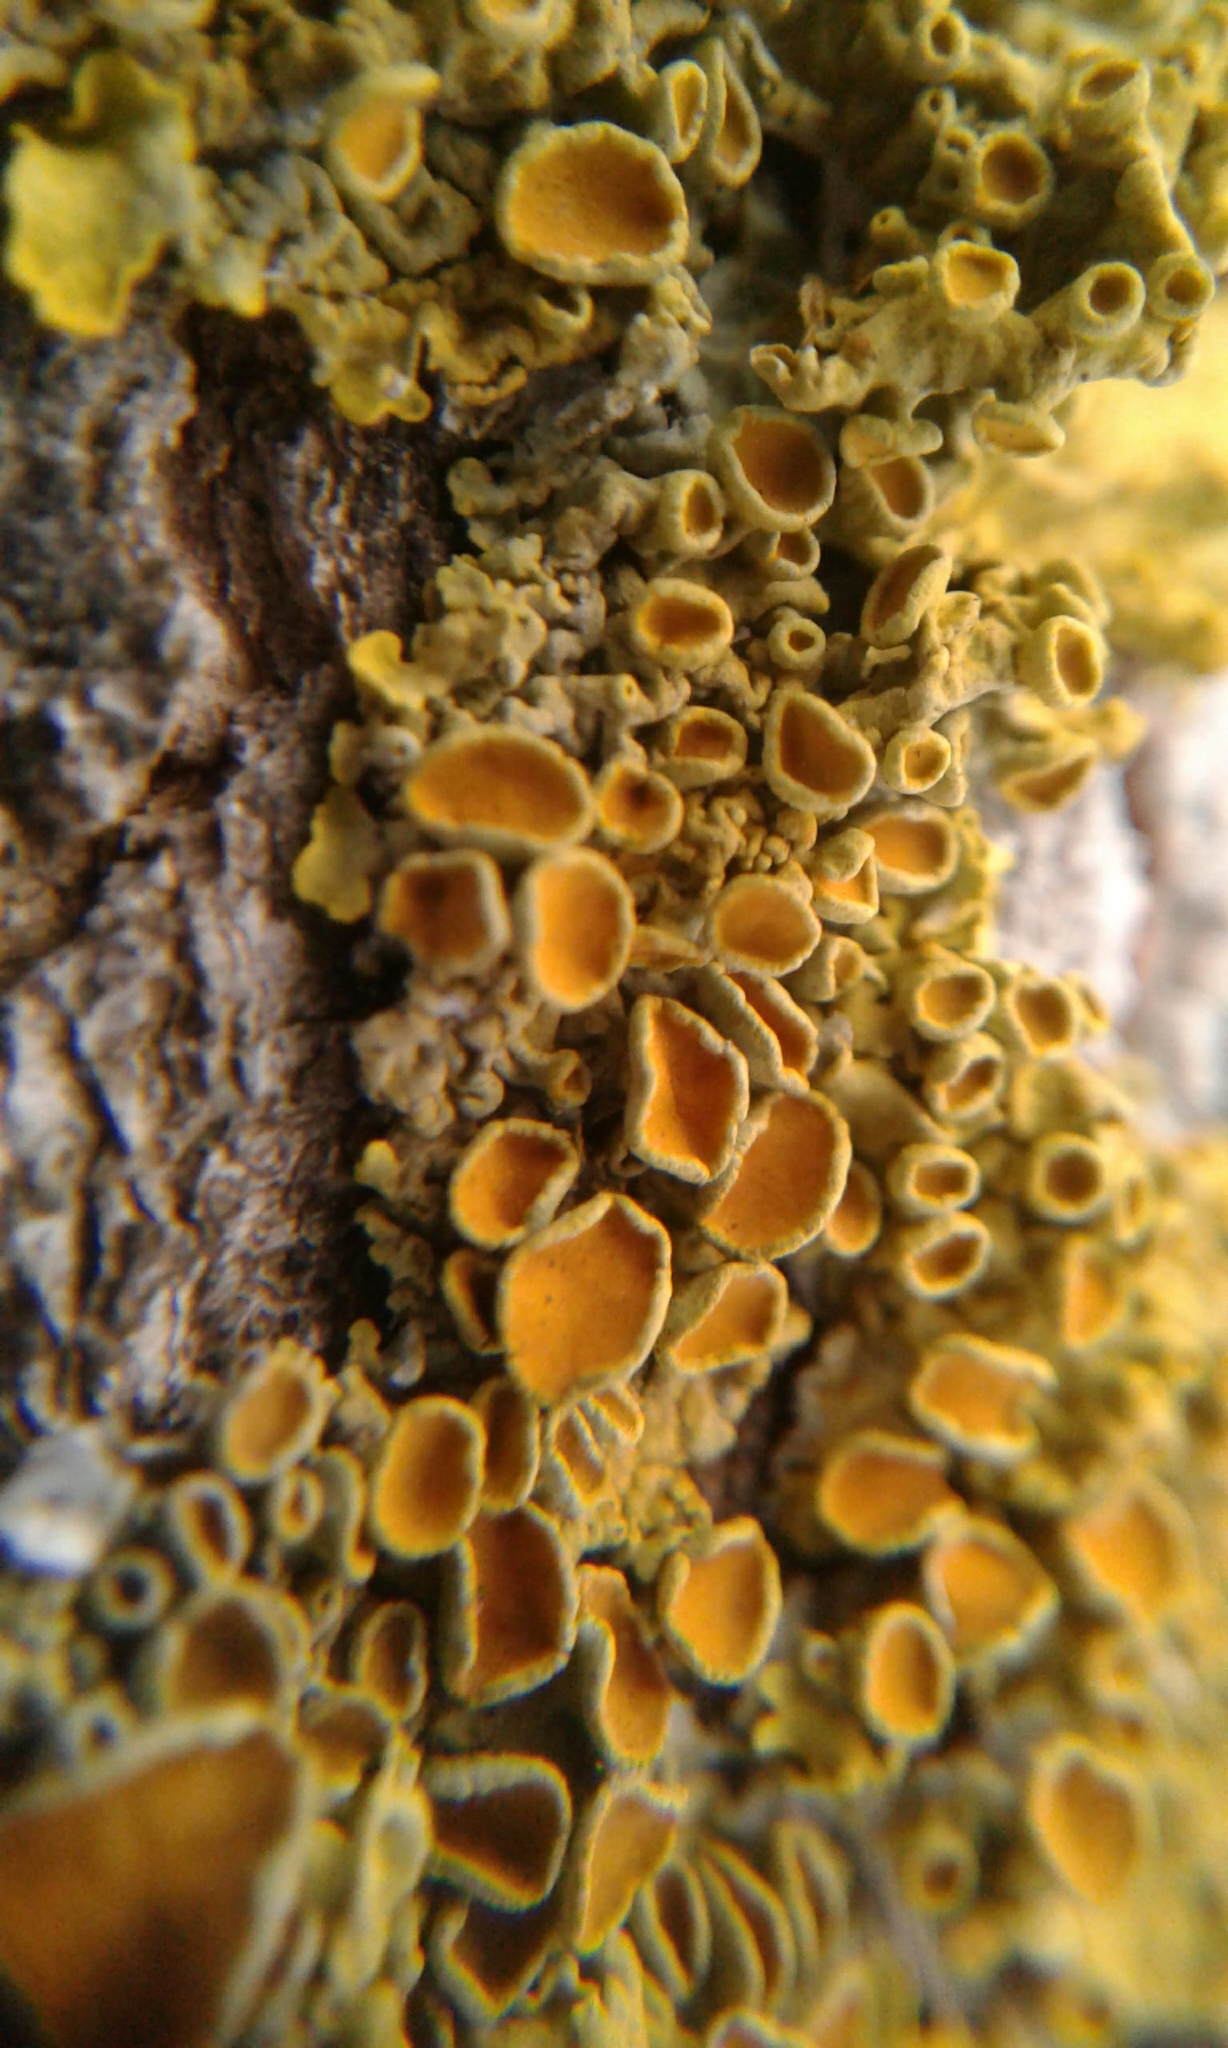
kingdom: Fungi
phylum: Ascomycota
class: Lecanoromycetes
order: Teloschistales
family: Teloschistaceae
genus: Xanthoria
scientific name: Xanthoria parietina
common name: Common orange lichen
